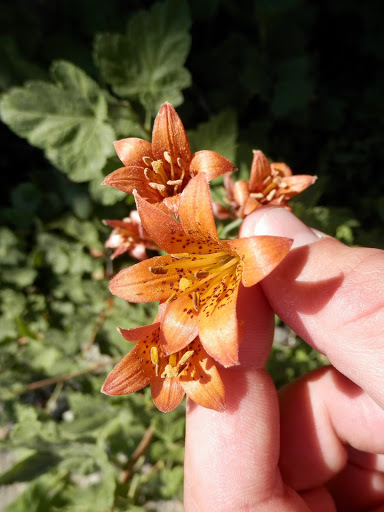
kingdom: Plantae
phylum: Tracheophyta
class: Liliopsida
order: Liliales
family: Liliaceae
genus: Lilium
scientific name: Lilium parvum
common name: Alpine lily
